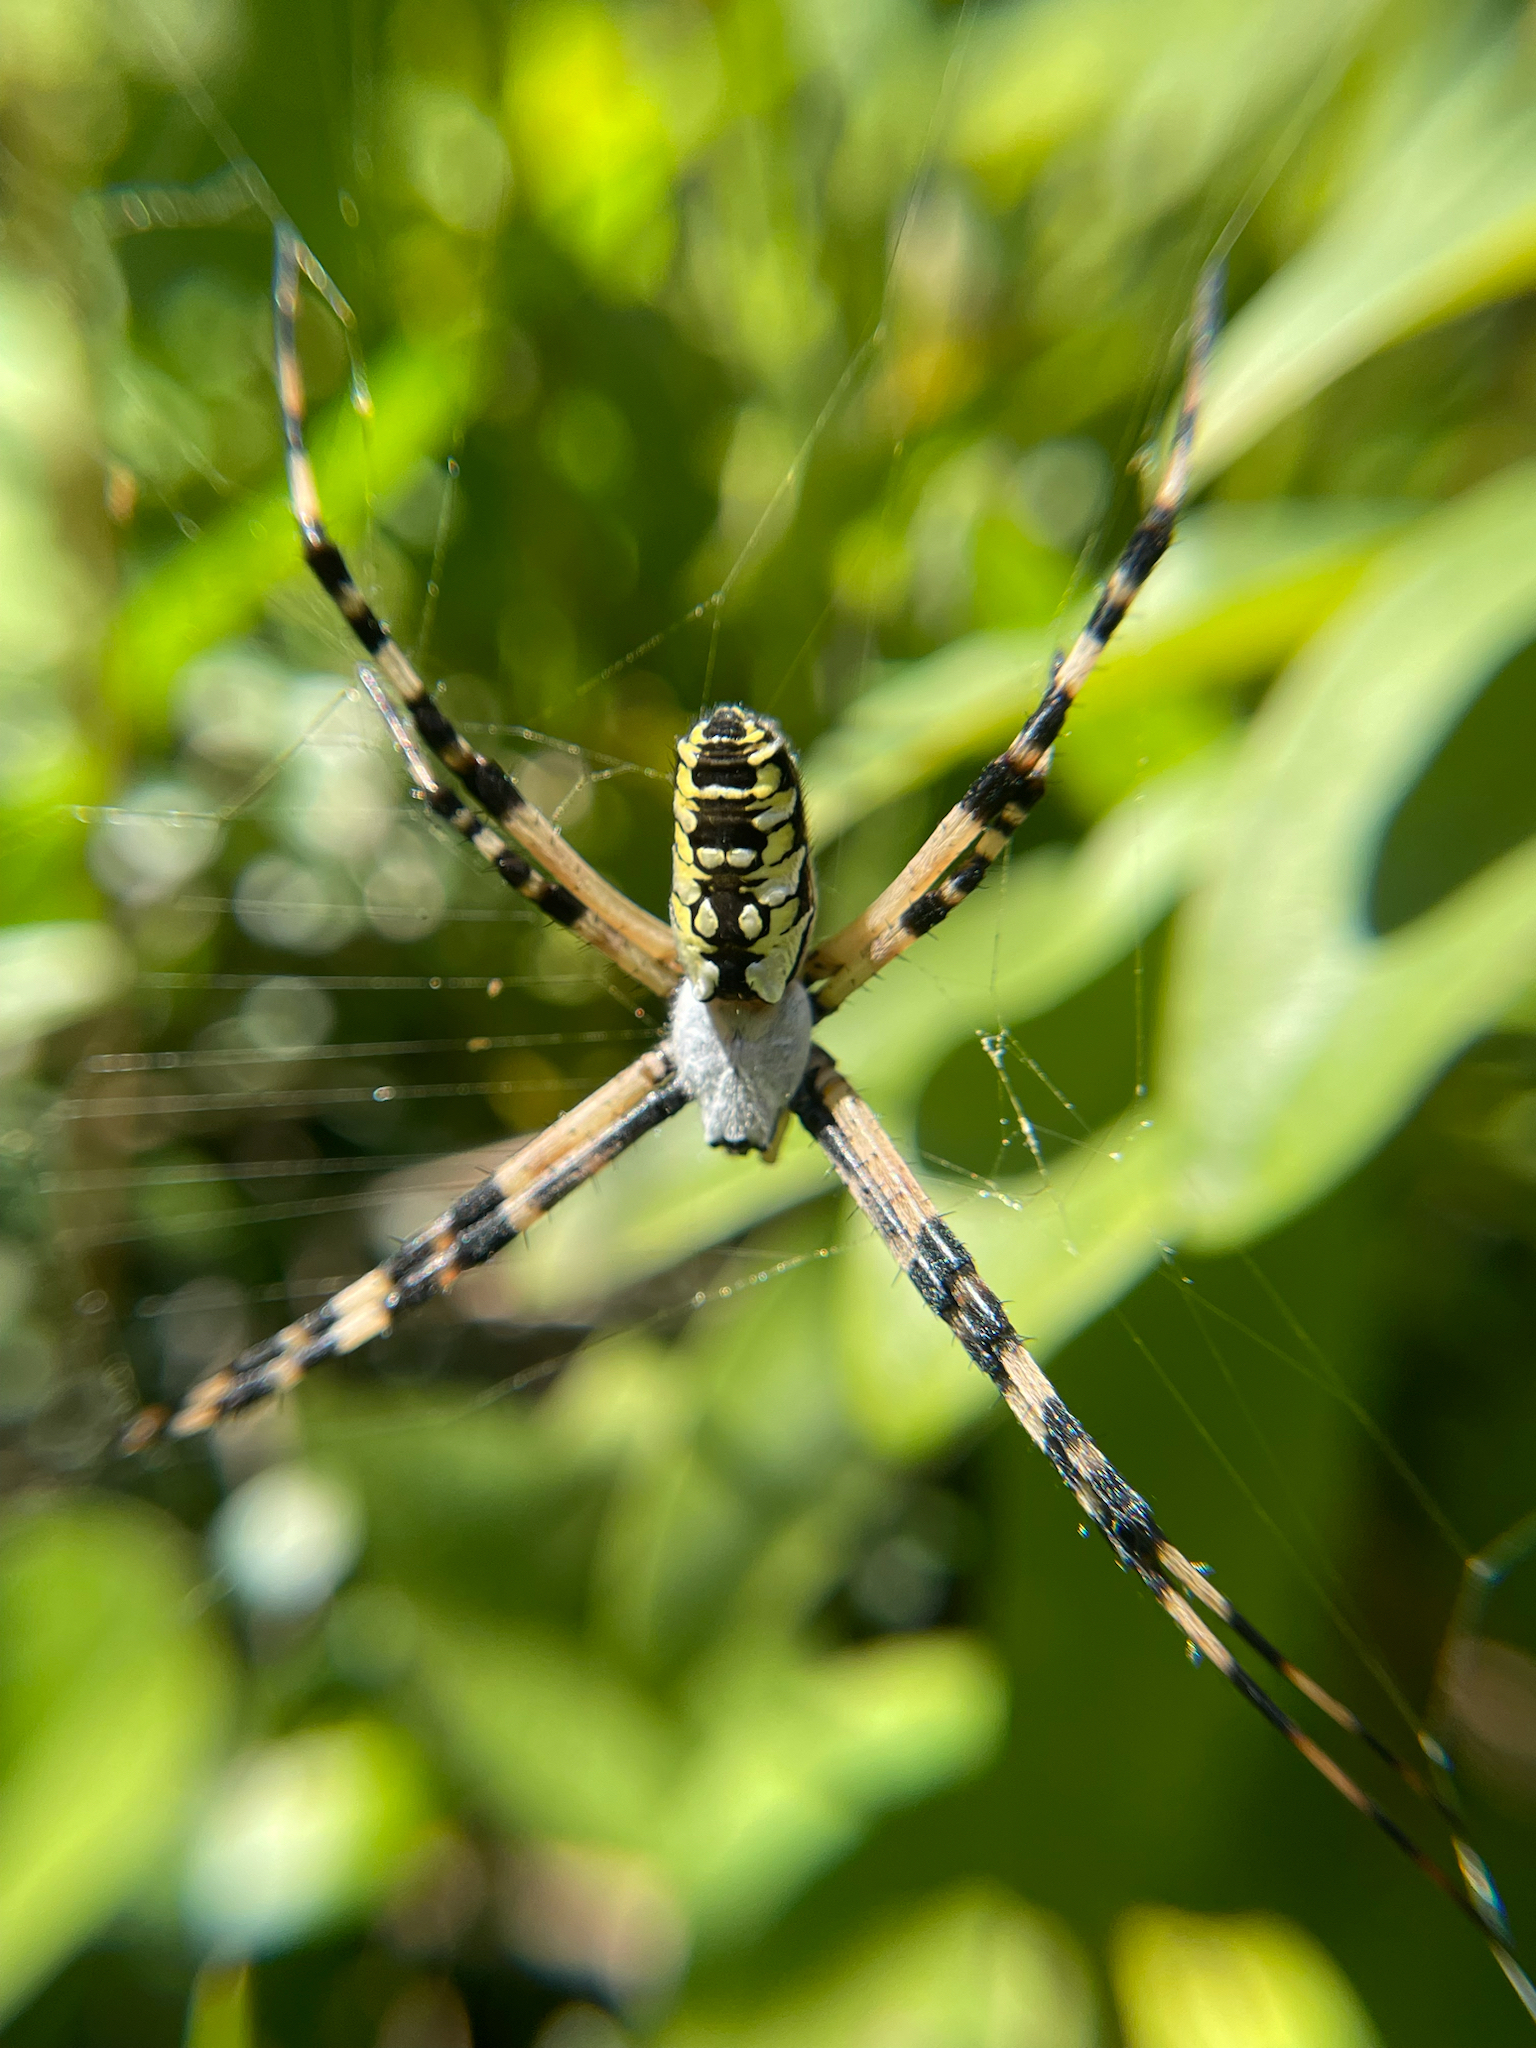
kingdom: Animalia
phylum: Arthropoda
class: Arachnida
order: Araneae
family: Araneidae
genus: Argiope
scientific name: Argiope aurantia
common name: Orb weavers
